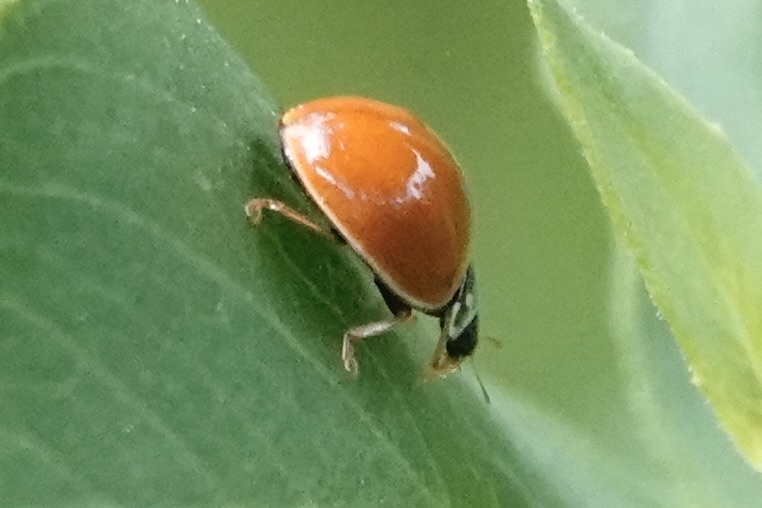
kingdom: Animalia
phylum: Arthropoda
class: Insecta
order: Coleoptera
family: Coccinellidae
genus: Cycloneda
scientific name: Cycloneda munda
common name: Polished lady beetle
